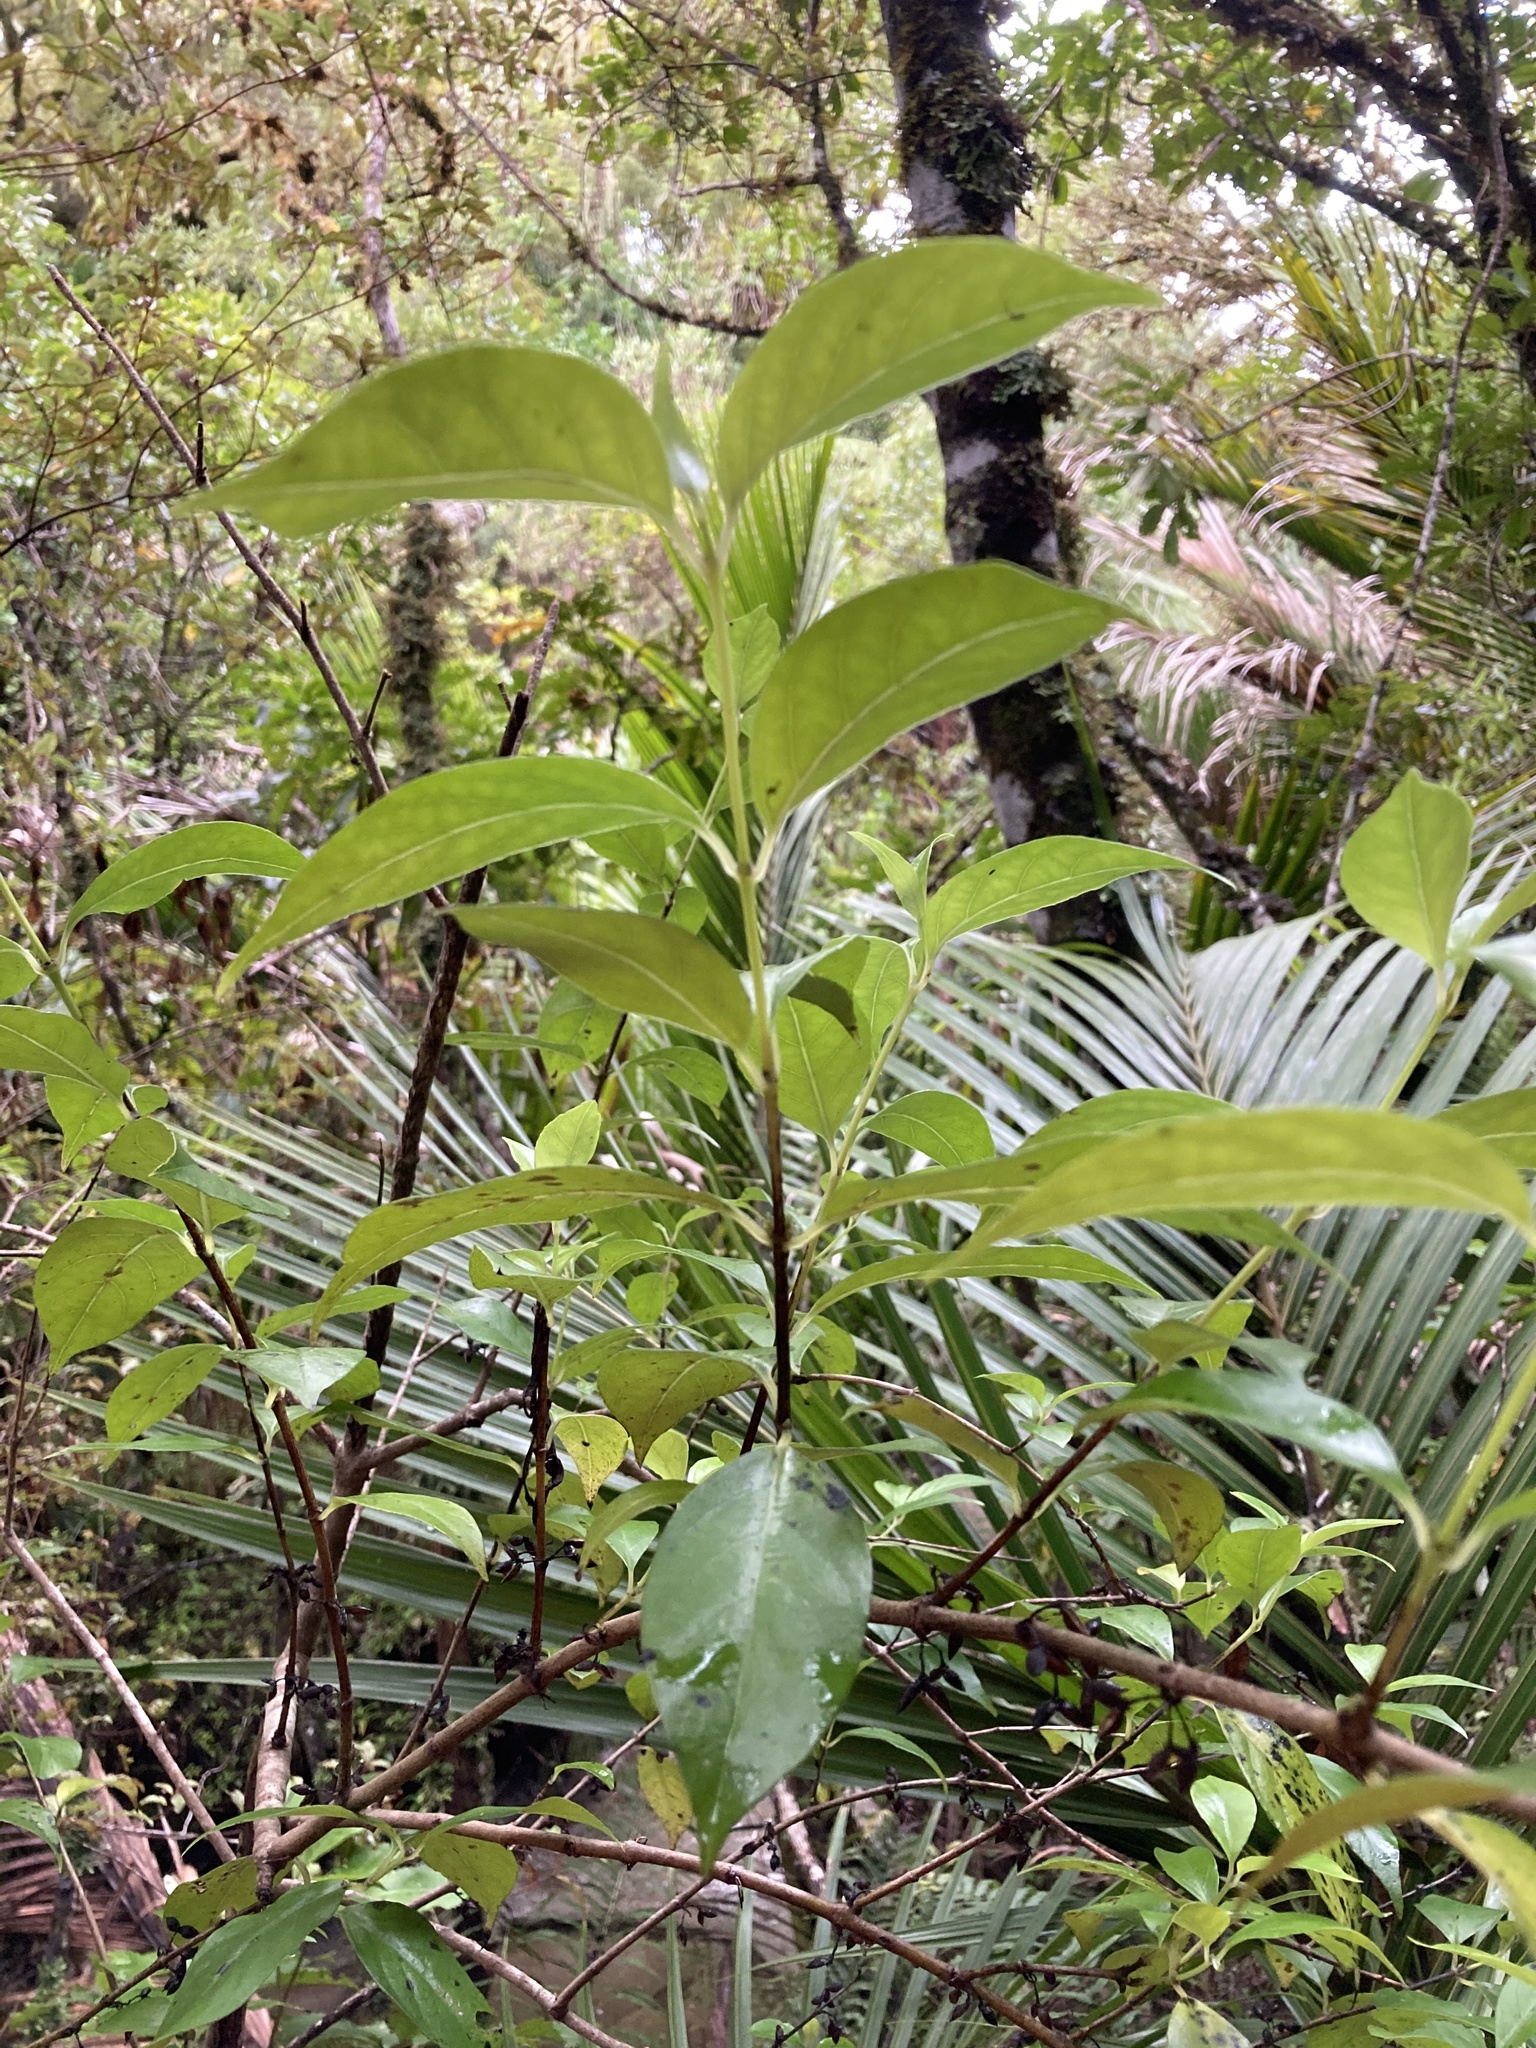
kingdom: Plantae
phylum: Tracheophyta
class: Magnoliopsida
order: Gentianales
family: Loganiaceae
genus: Geniostoma
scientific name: Geniostoma ligustrifolium
